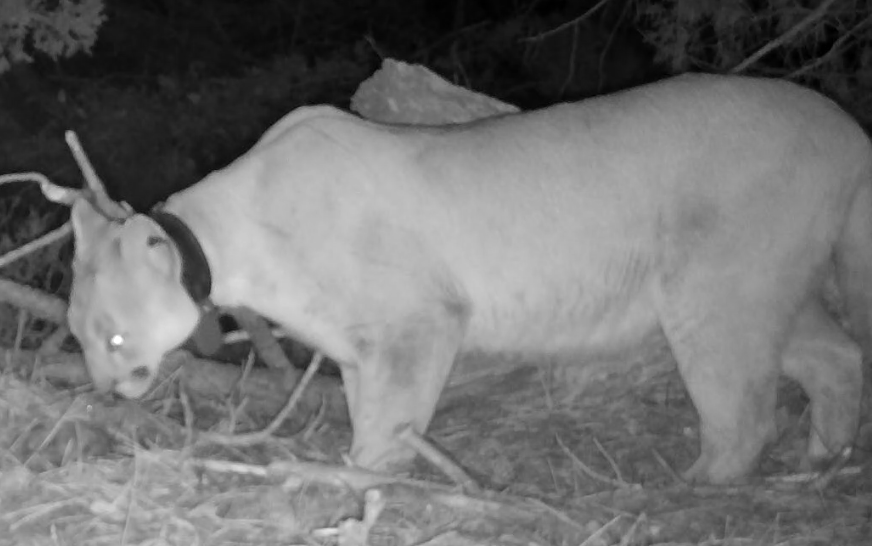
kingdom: Animalia
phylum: Chordata
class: Mammalia
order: Carnivora
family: Felidae
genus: Puma
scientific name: Puma concolor
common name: Puma
